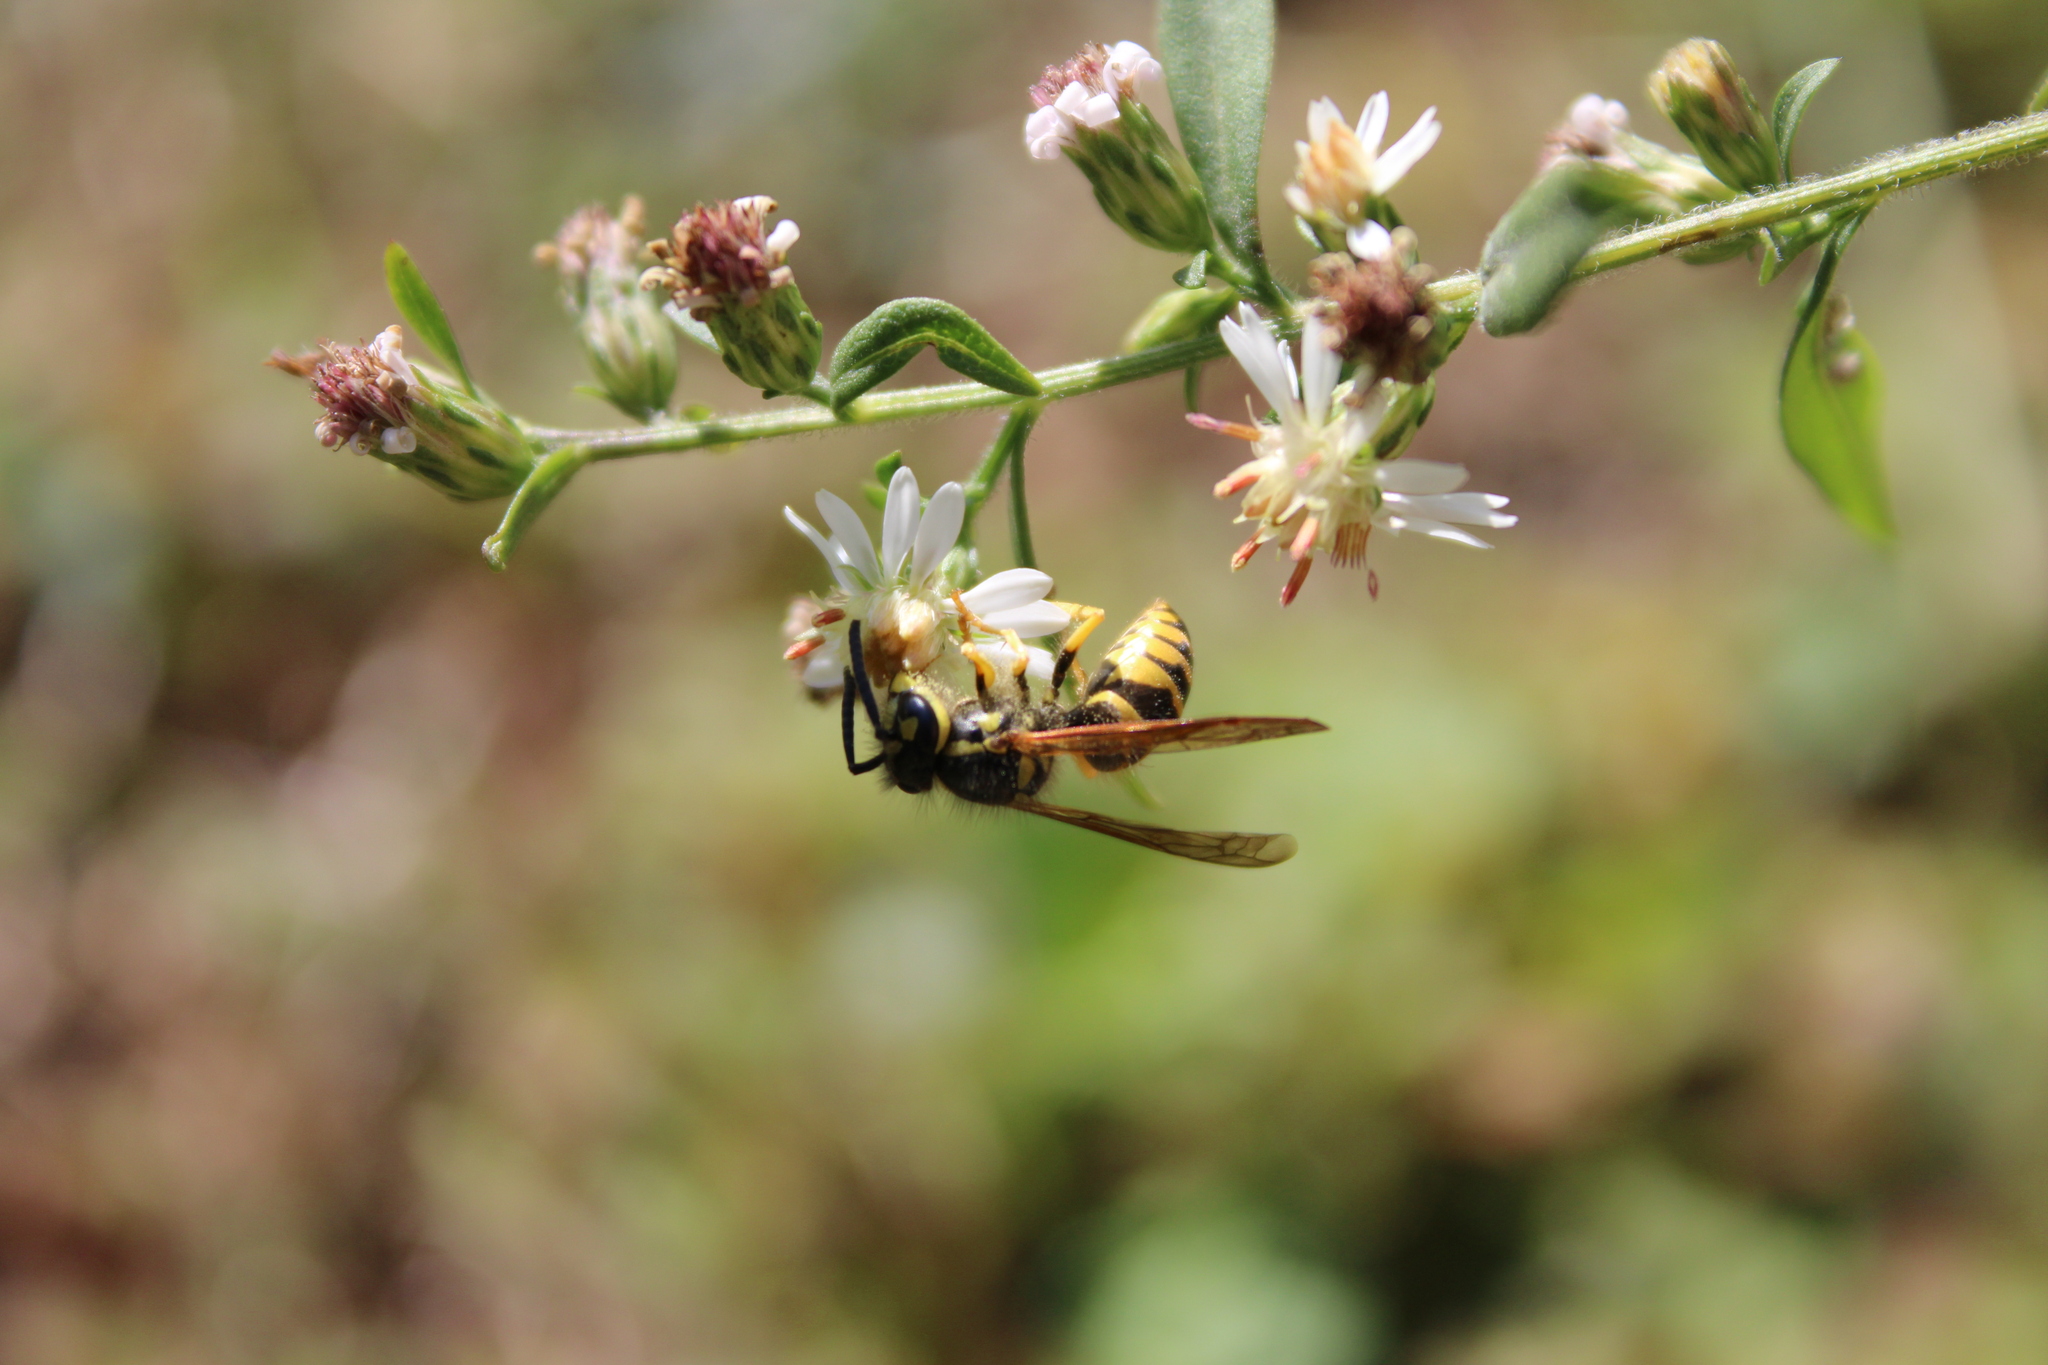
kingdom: Animalia
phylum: Arthropoda
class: Insecta
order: Hymenoptera
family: Vespidae
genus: Vespula
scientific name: Vespula maculifrons
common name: Eastern yellowjacket
